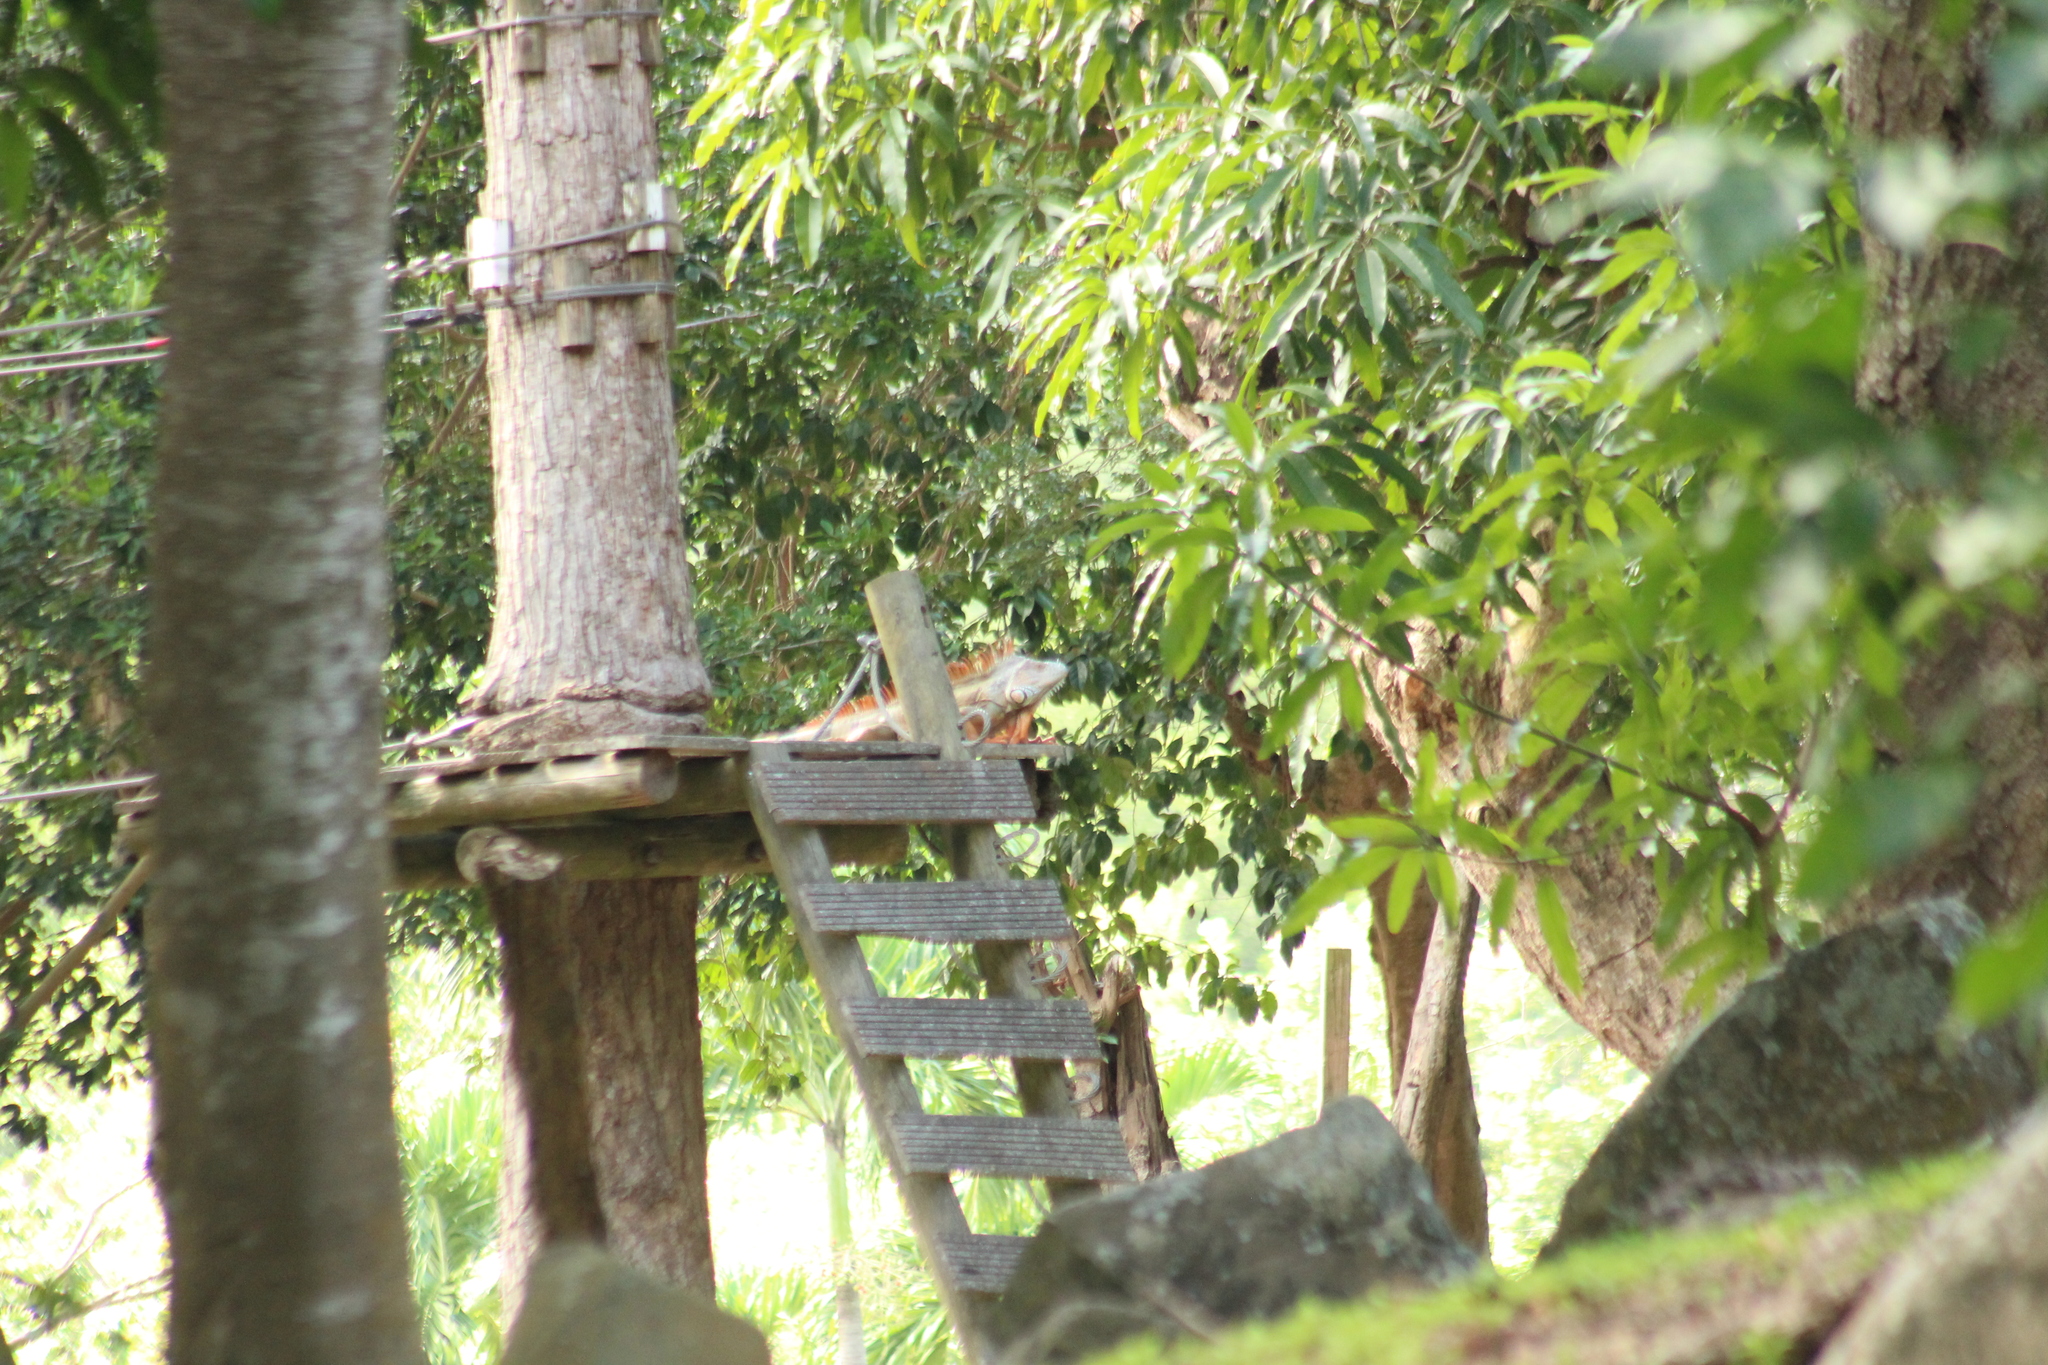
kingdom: Animalia
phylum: Chordata
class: Squamata
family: Iguanidae
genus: Iguana
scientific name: Iguana iguana
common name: Green iguana
